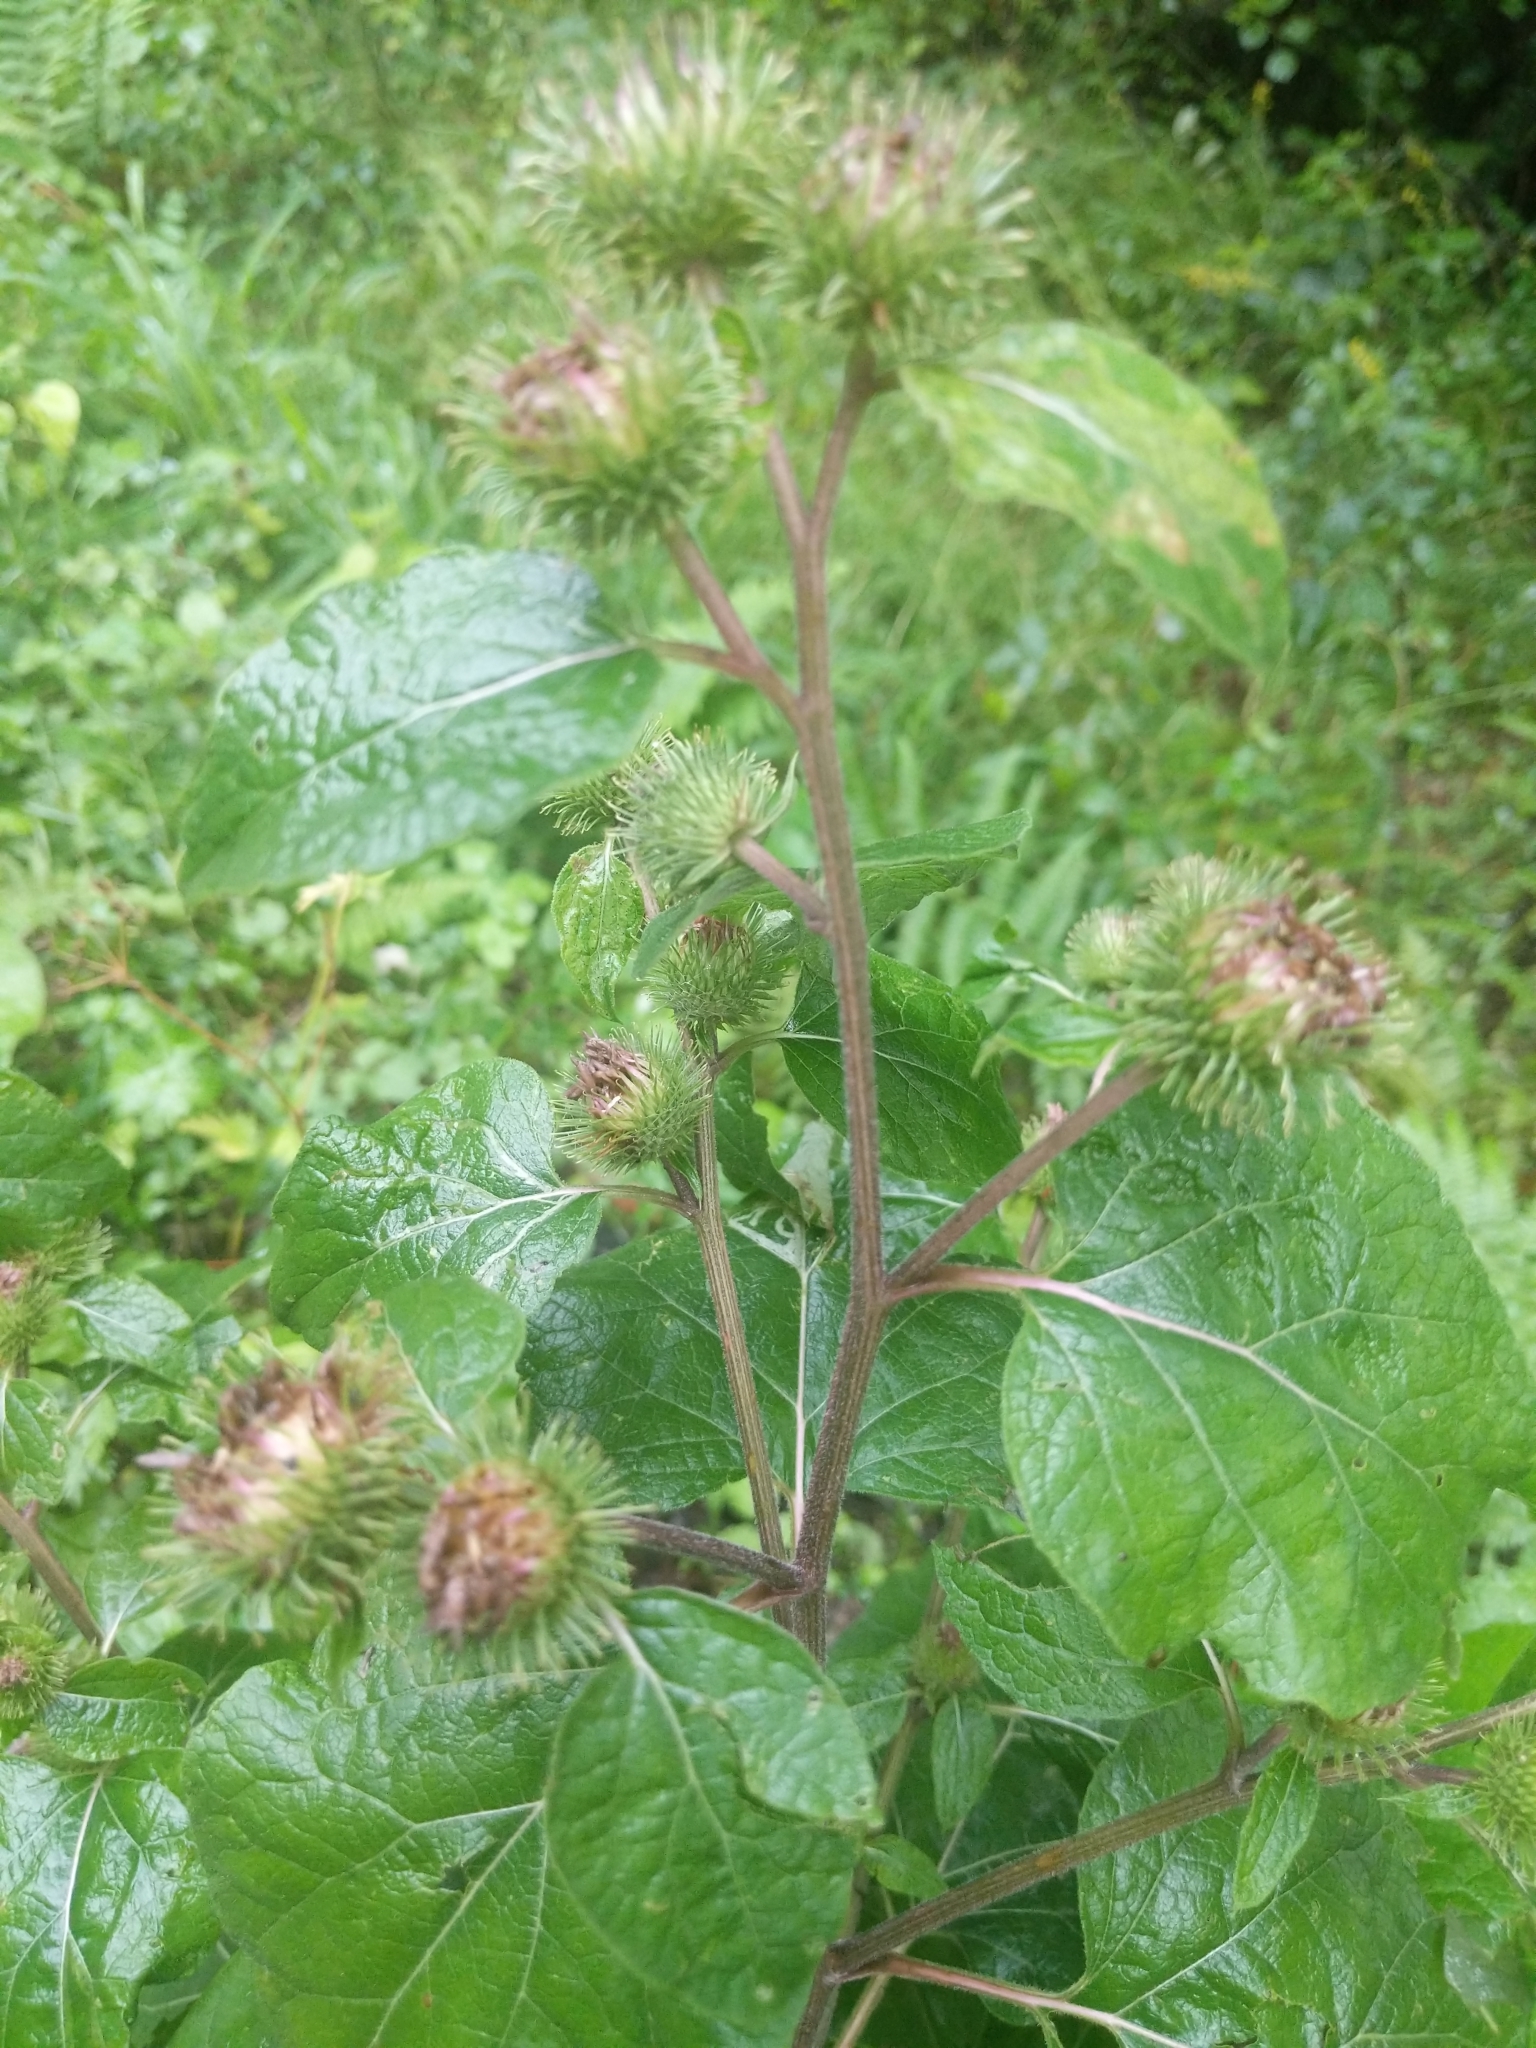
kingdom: Plantae
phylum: Tracheophyta
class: Magnoliopsida
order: Asterales
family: Asteraceae
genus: Arctium
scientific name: Arctium minus
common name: Lesser burdock
